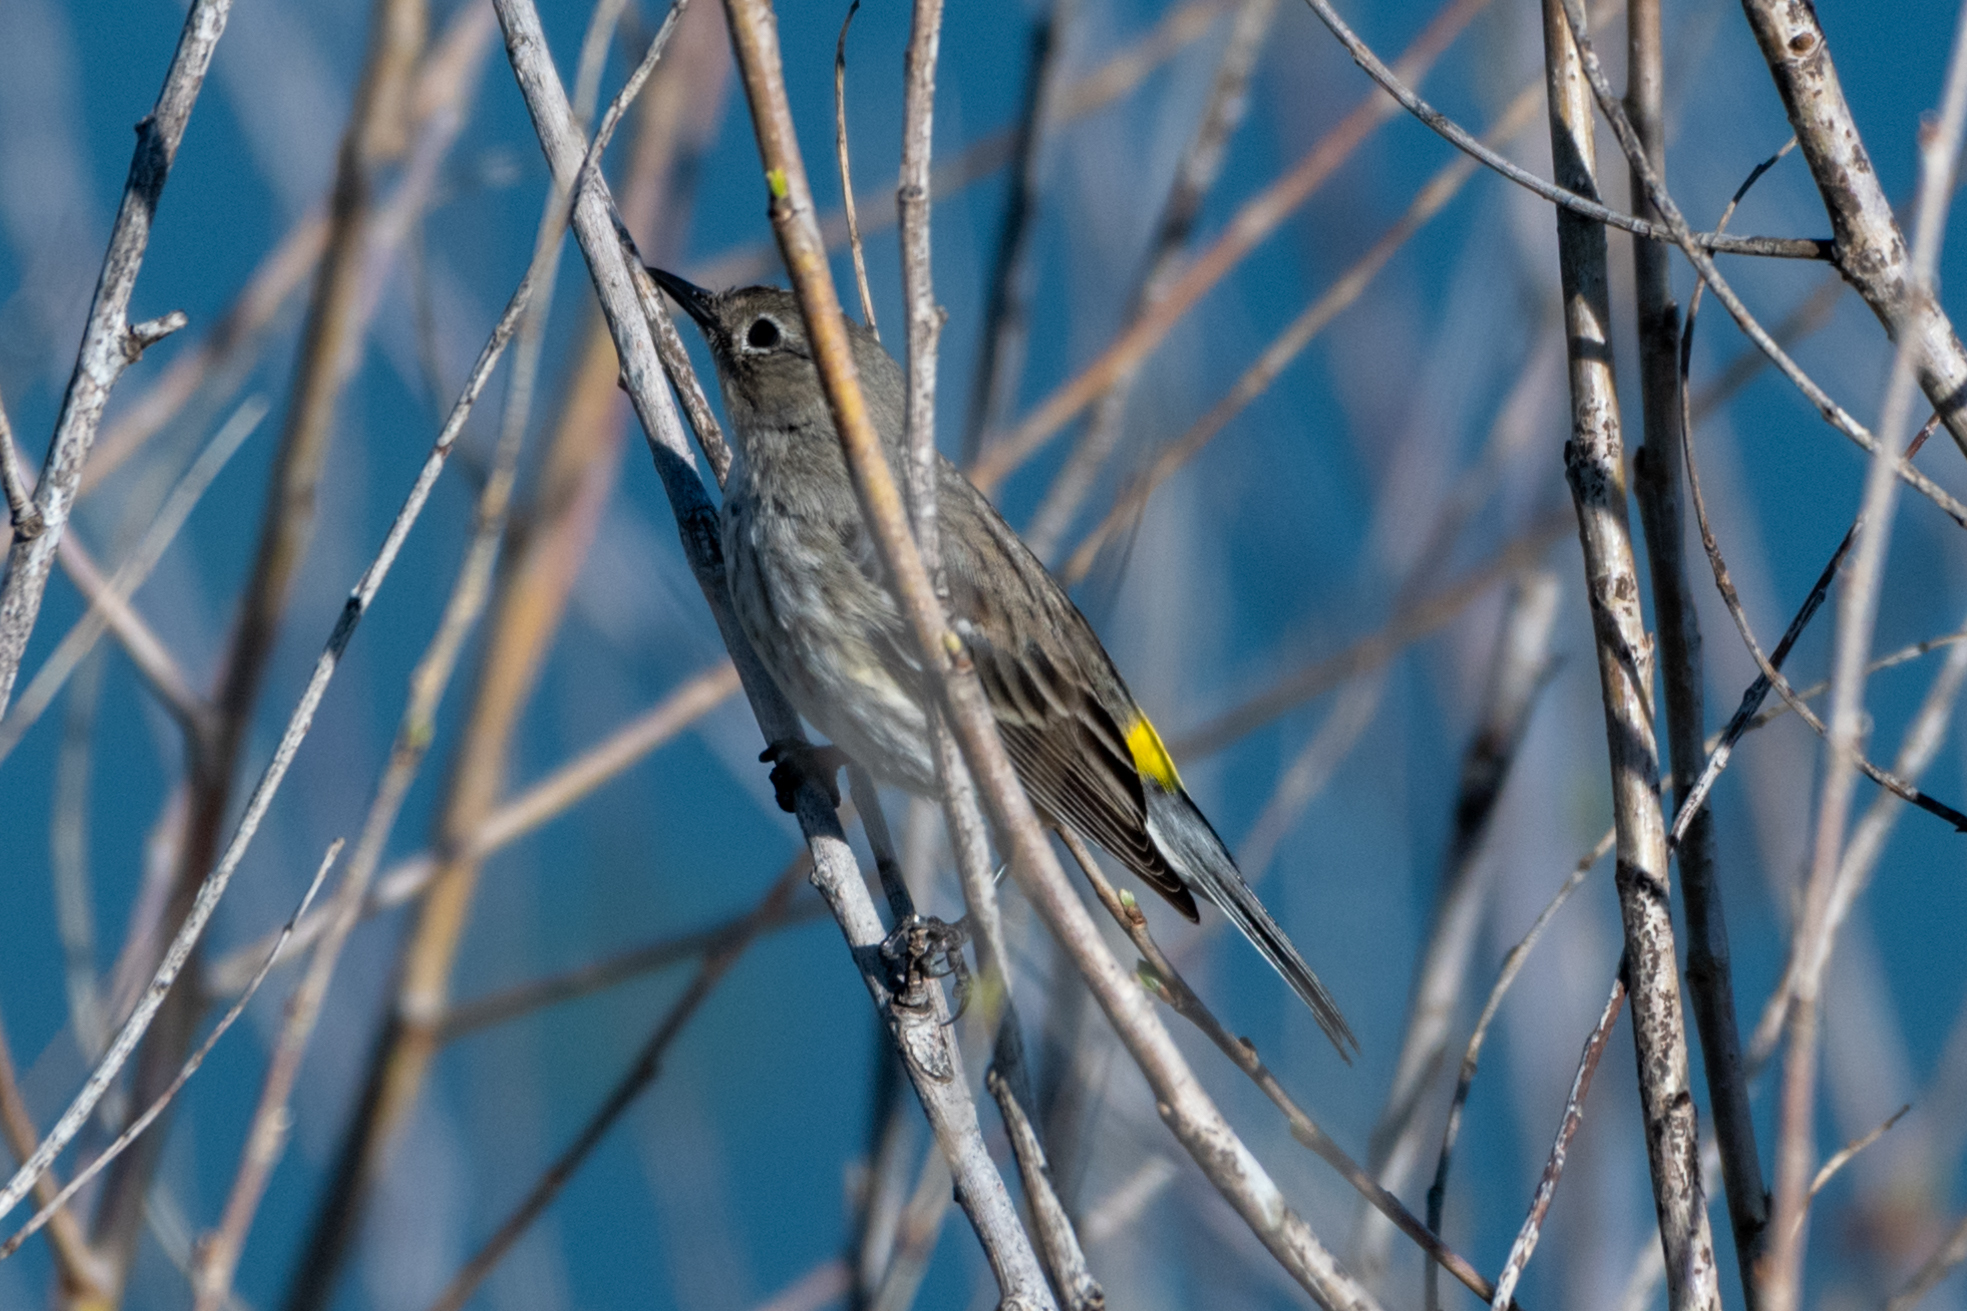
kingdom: Animalia
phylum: Chordata
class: Aves
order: Passeriformes
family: Parulidae
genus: Setophaga
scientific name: Setophaga coronata
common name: Myrtle warbler
